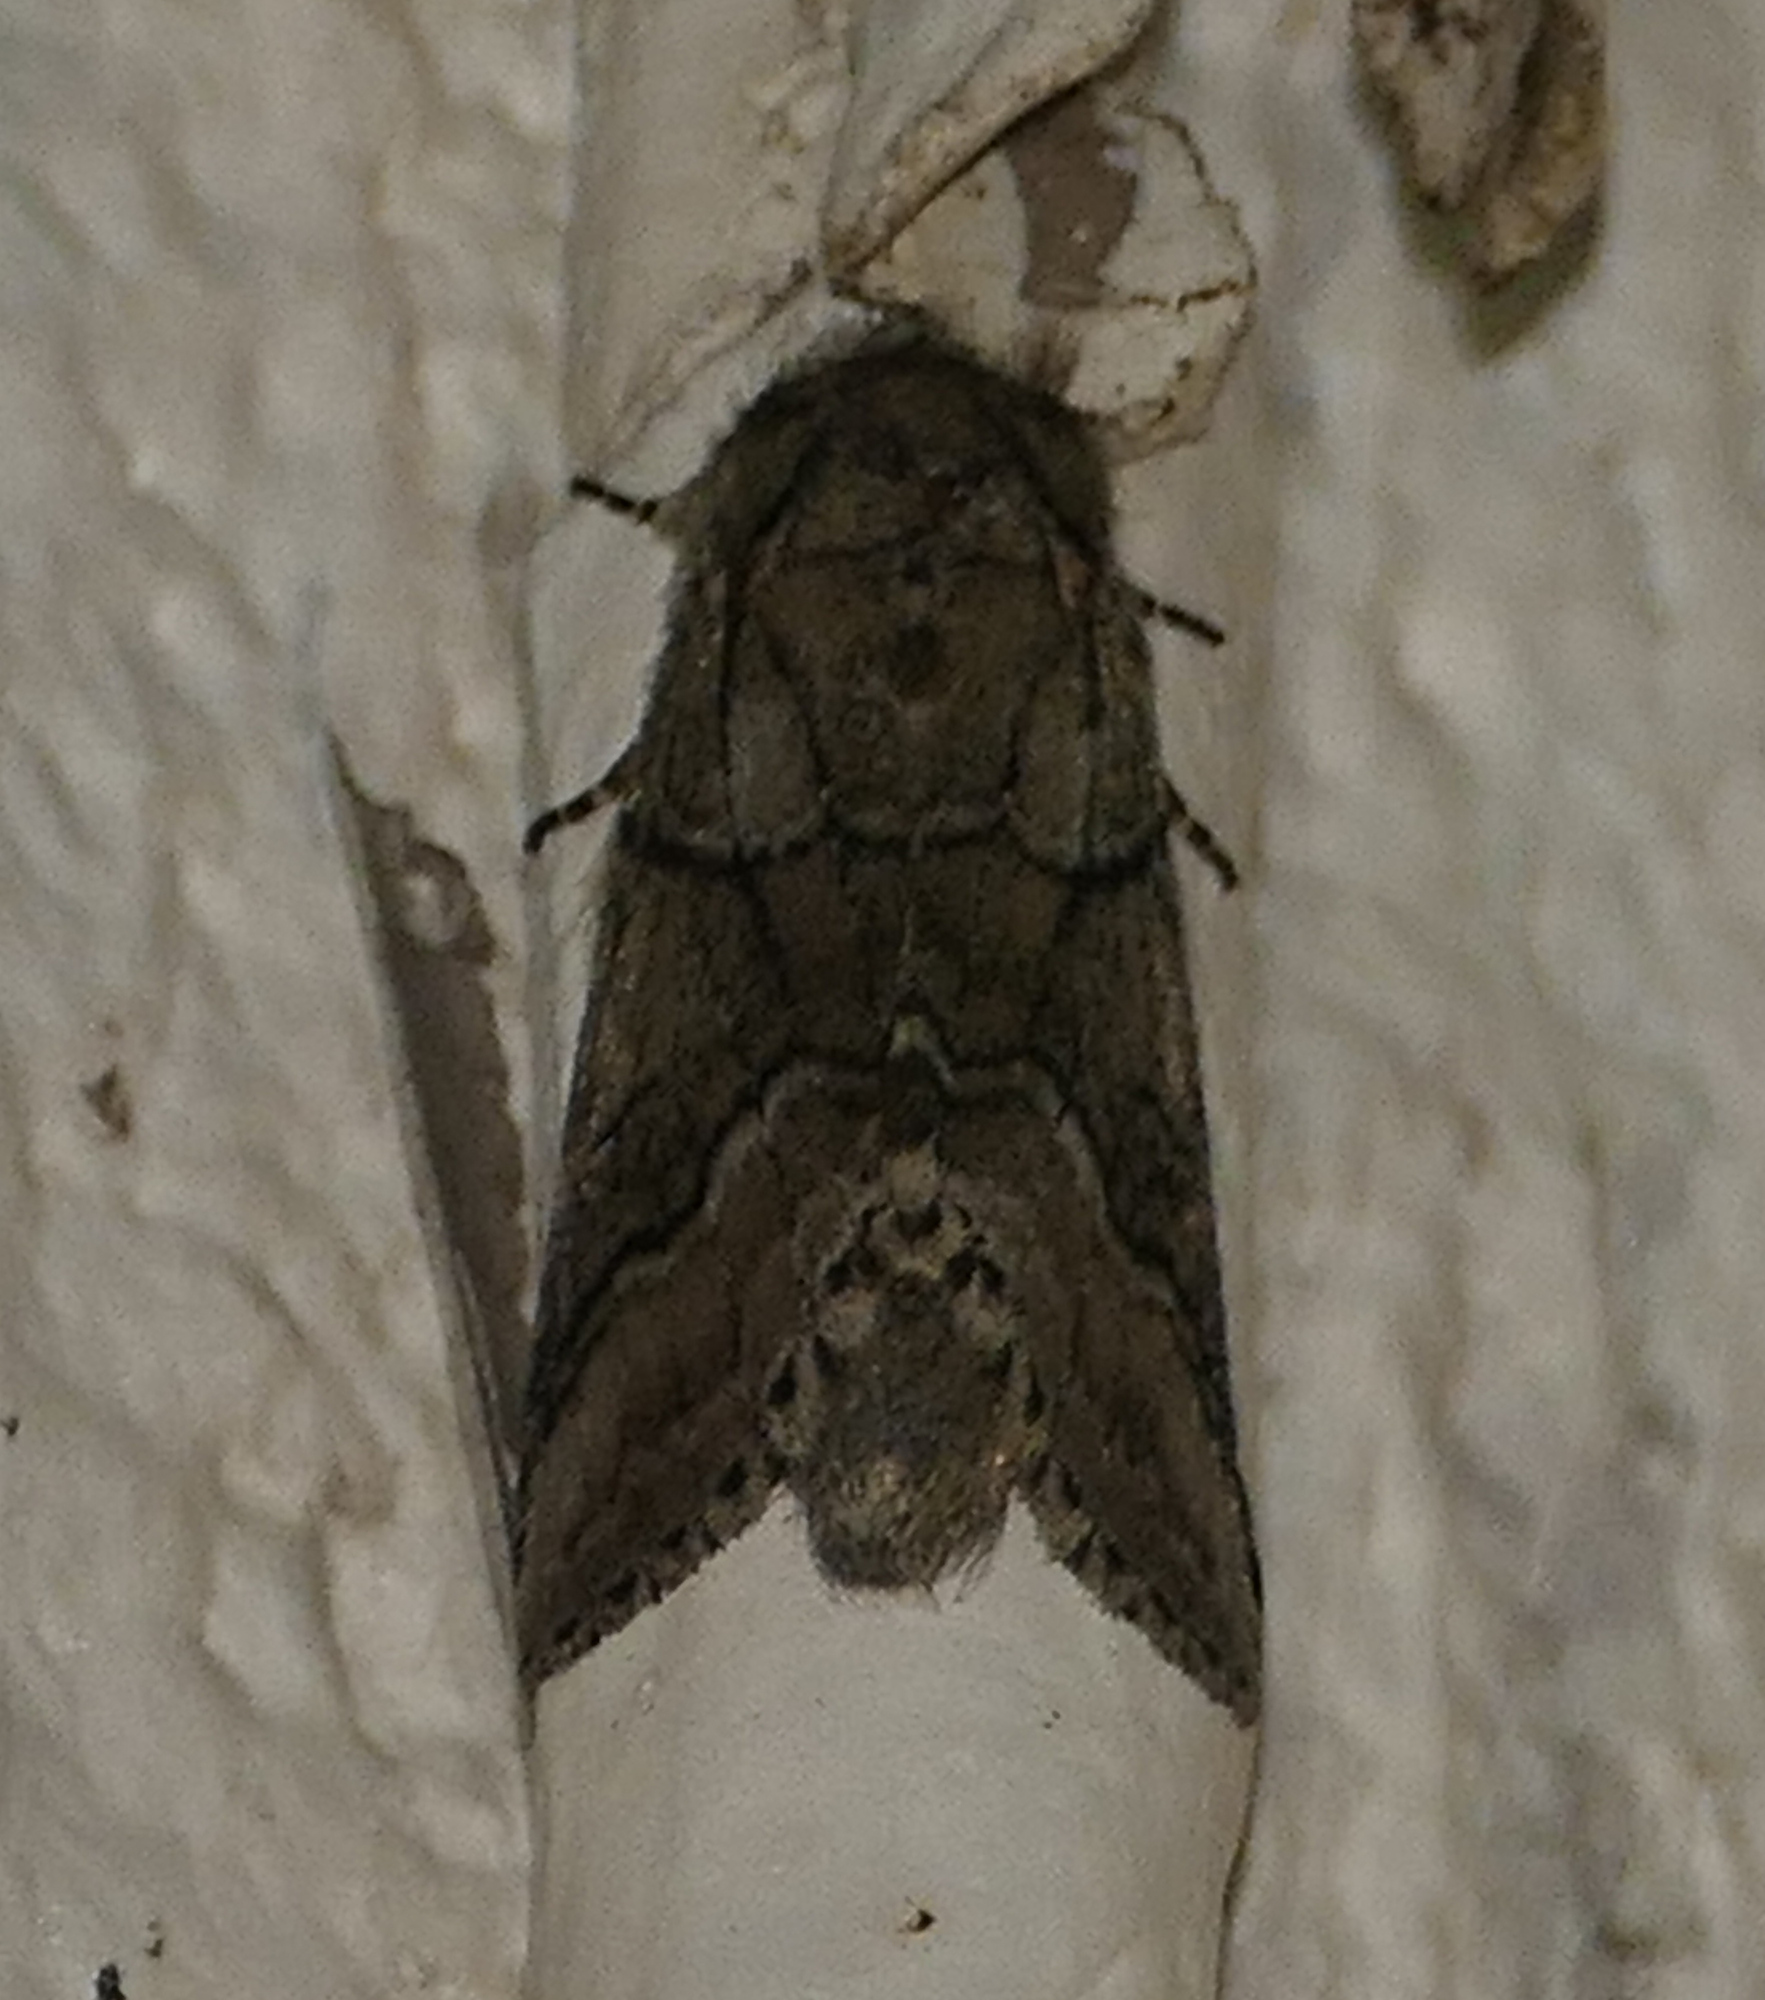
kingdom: Animalia
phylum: Arthropoda
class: Insecta
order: Lepidoptera
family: Notodontidae
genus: Lochmaeus
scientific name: Lochmaeus bilineata
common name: Double-lined prominent
